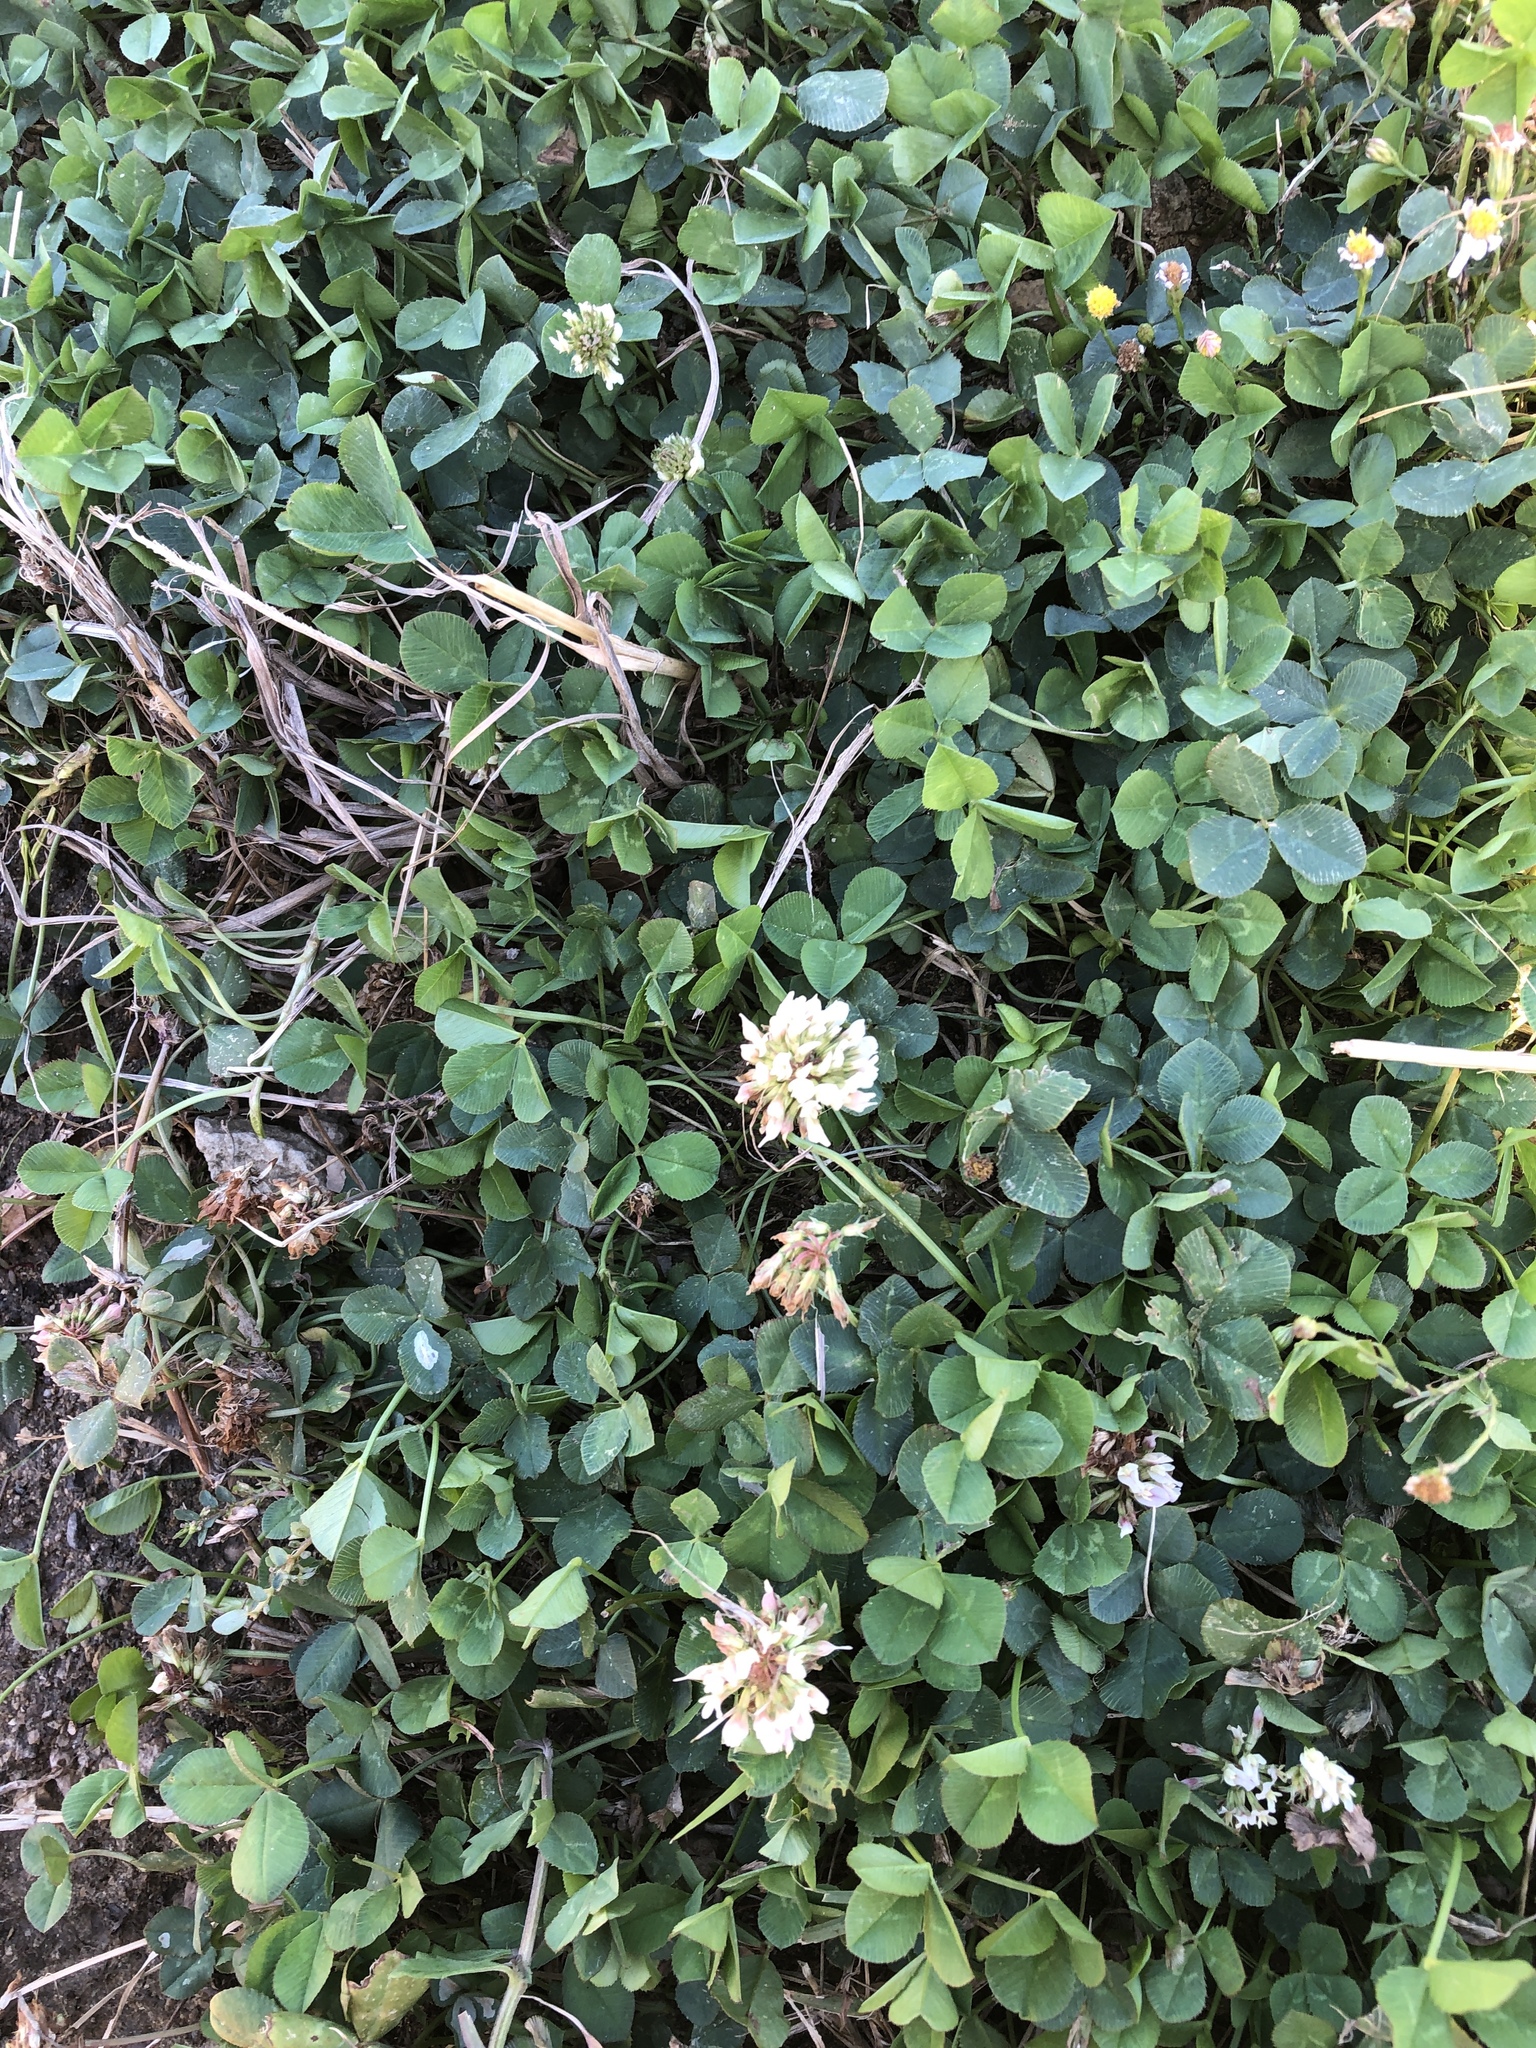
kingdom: Plantae
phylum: Tracheophyta
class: Magnoliopsida
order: Fabales
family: Fabaceae
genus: Trifolium
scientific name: Trifolium repens
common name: White clover
